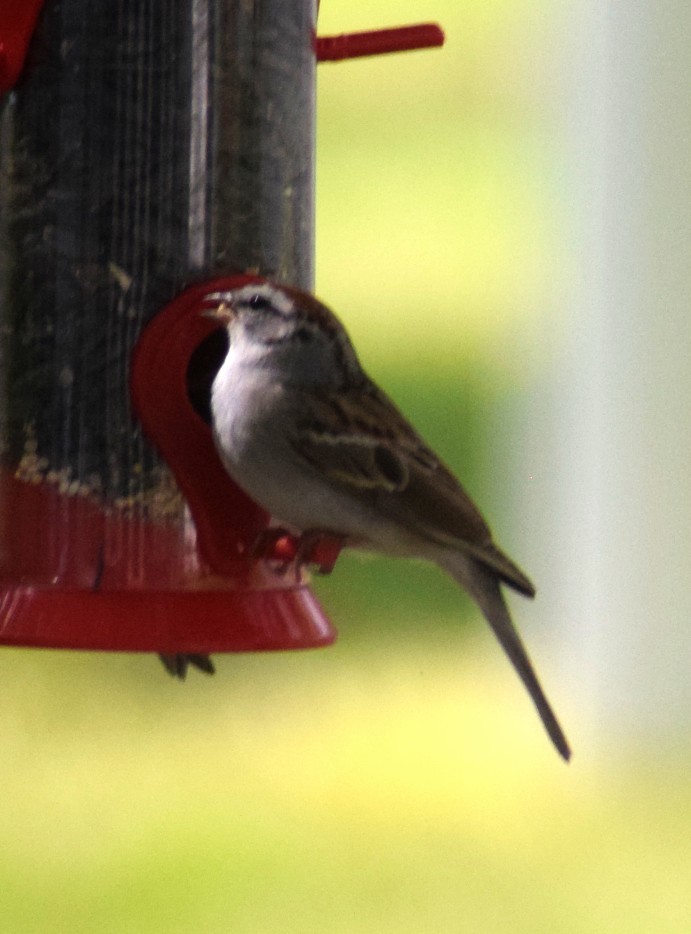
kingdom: Animalia
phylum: Chordata
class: Aves
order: Passeriformes
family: Passerellidae
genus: Spizella
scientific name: Spizella passerina
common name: Chipping sparrow
